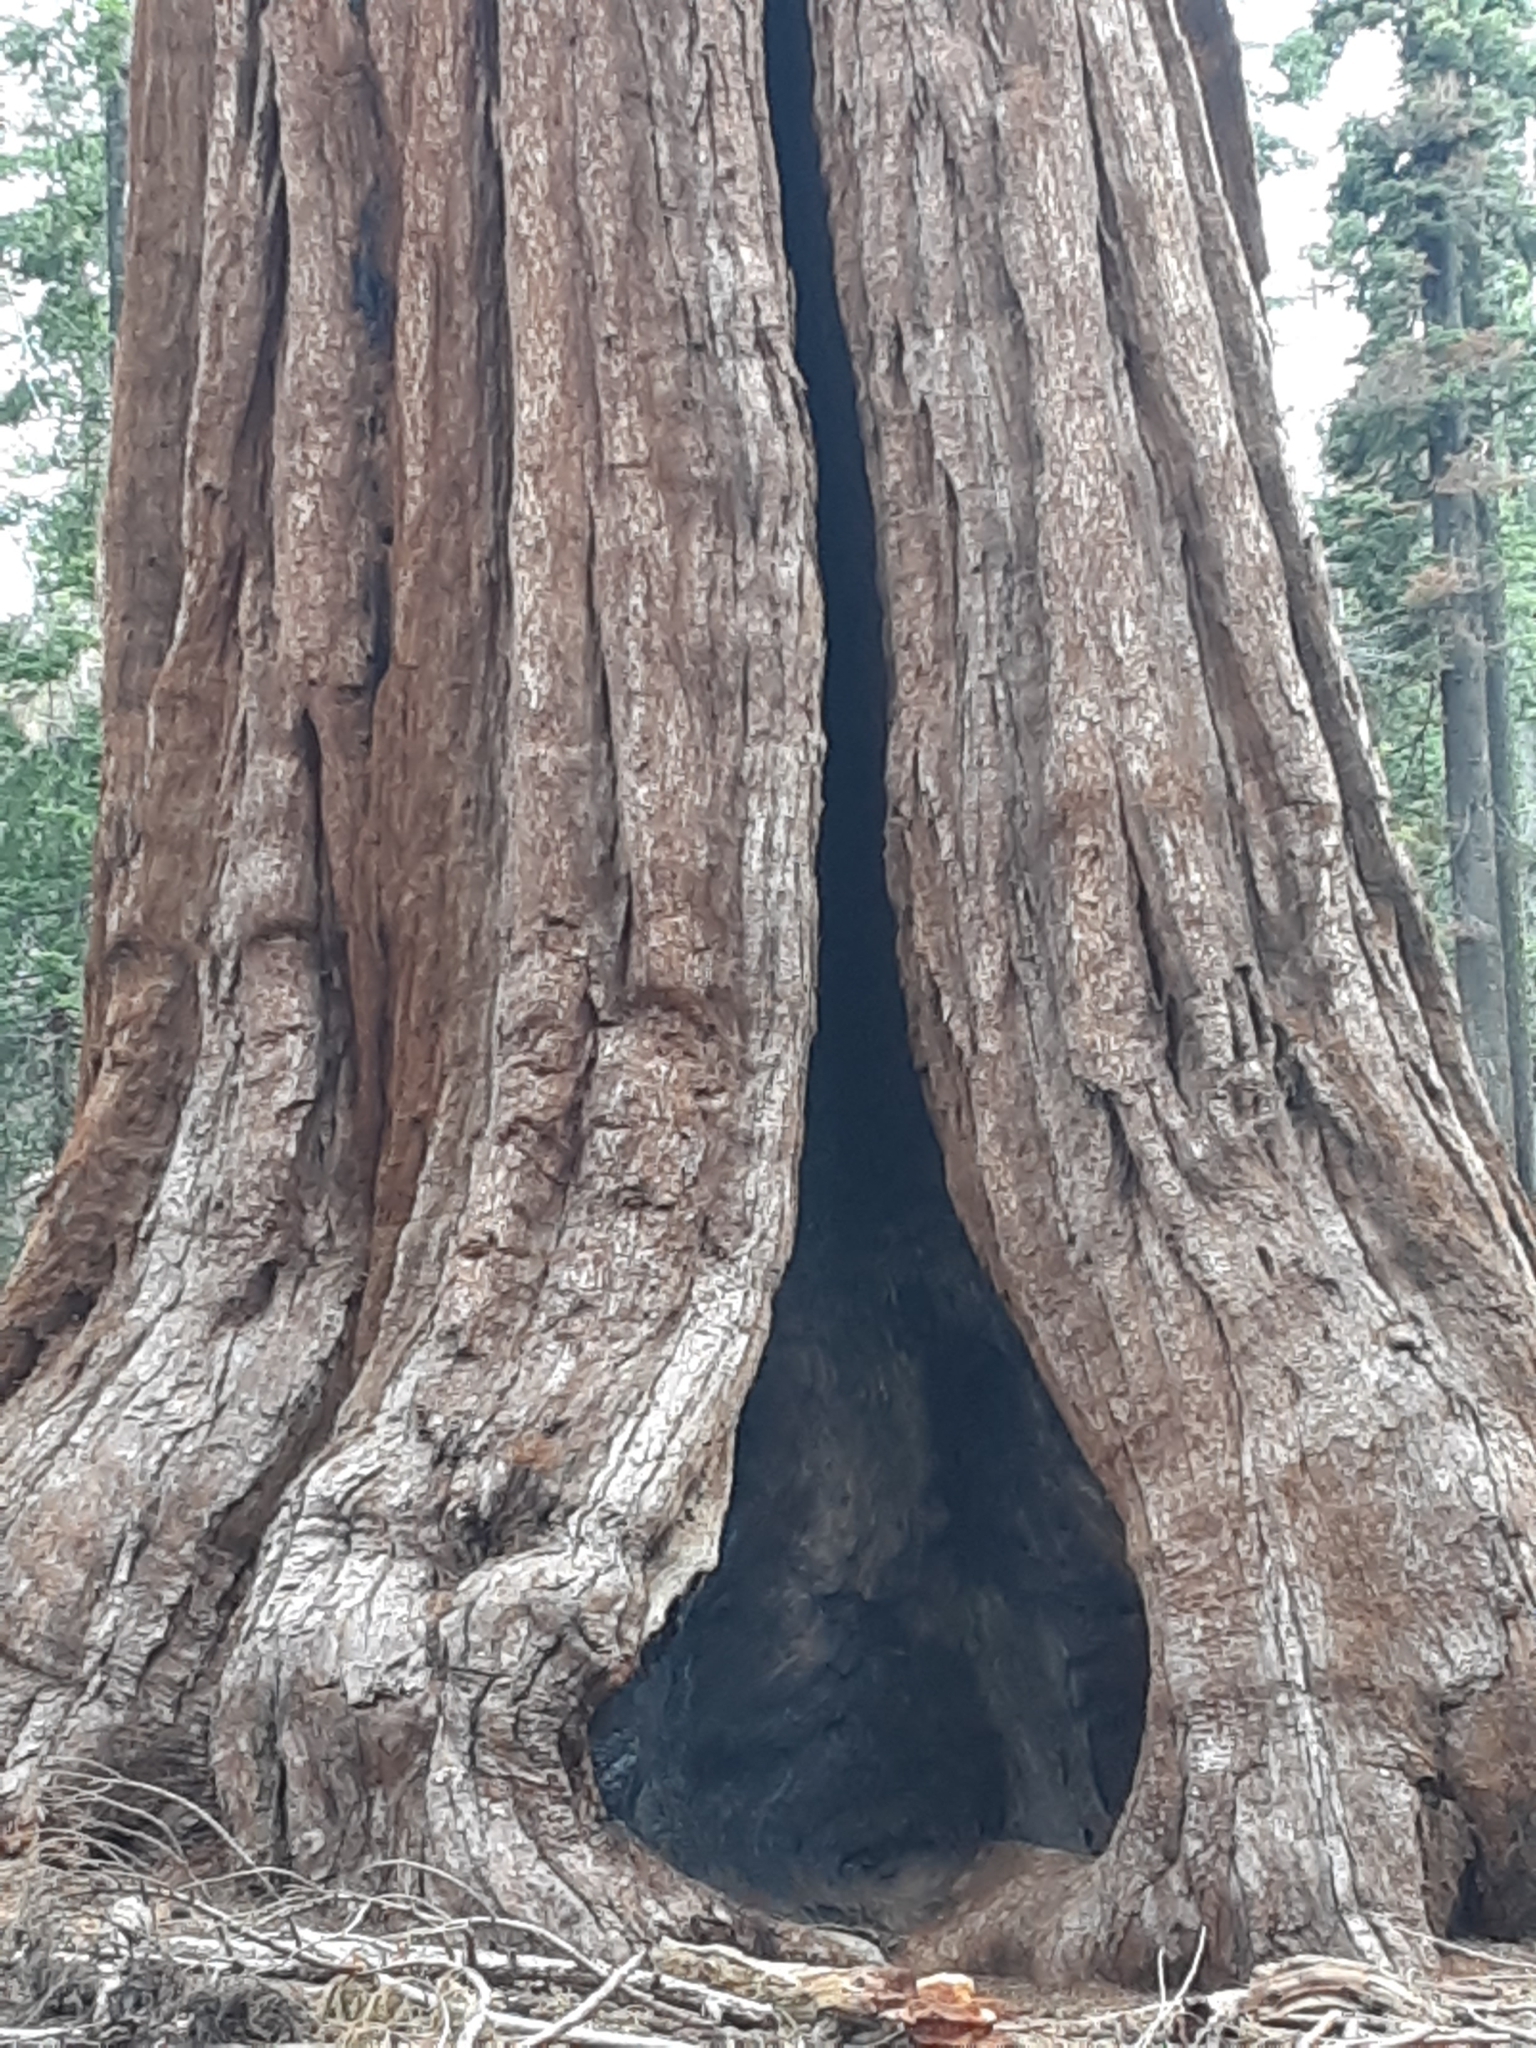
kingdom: Plantae
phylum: Tracheophyta
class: Pinopsida
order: Pinales
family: Cupressaceae
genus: Sequoiadendron
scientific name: Sequoiadendron giganteum
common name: Wellingtonia
